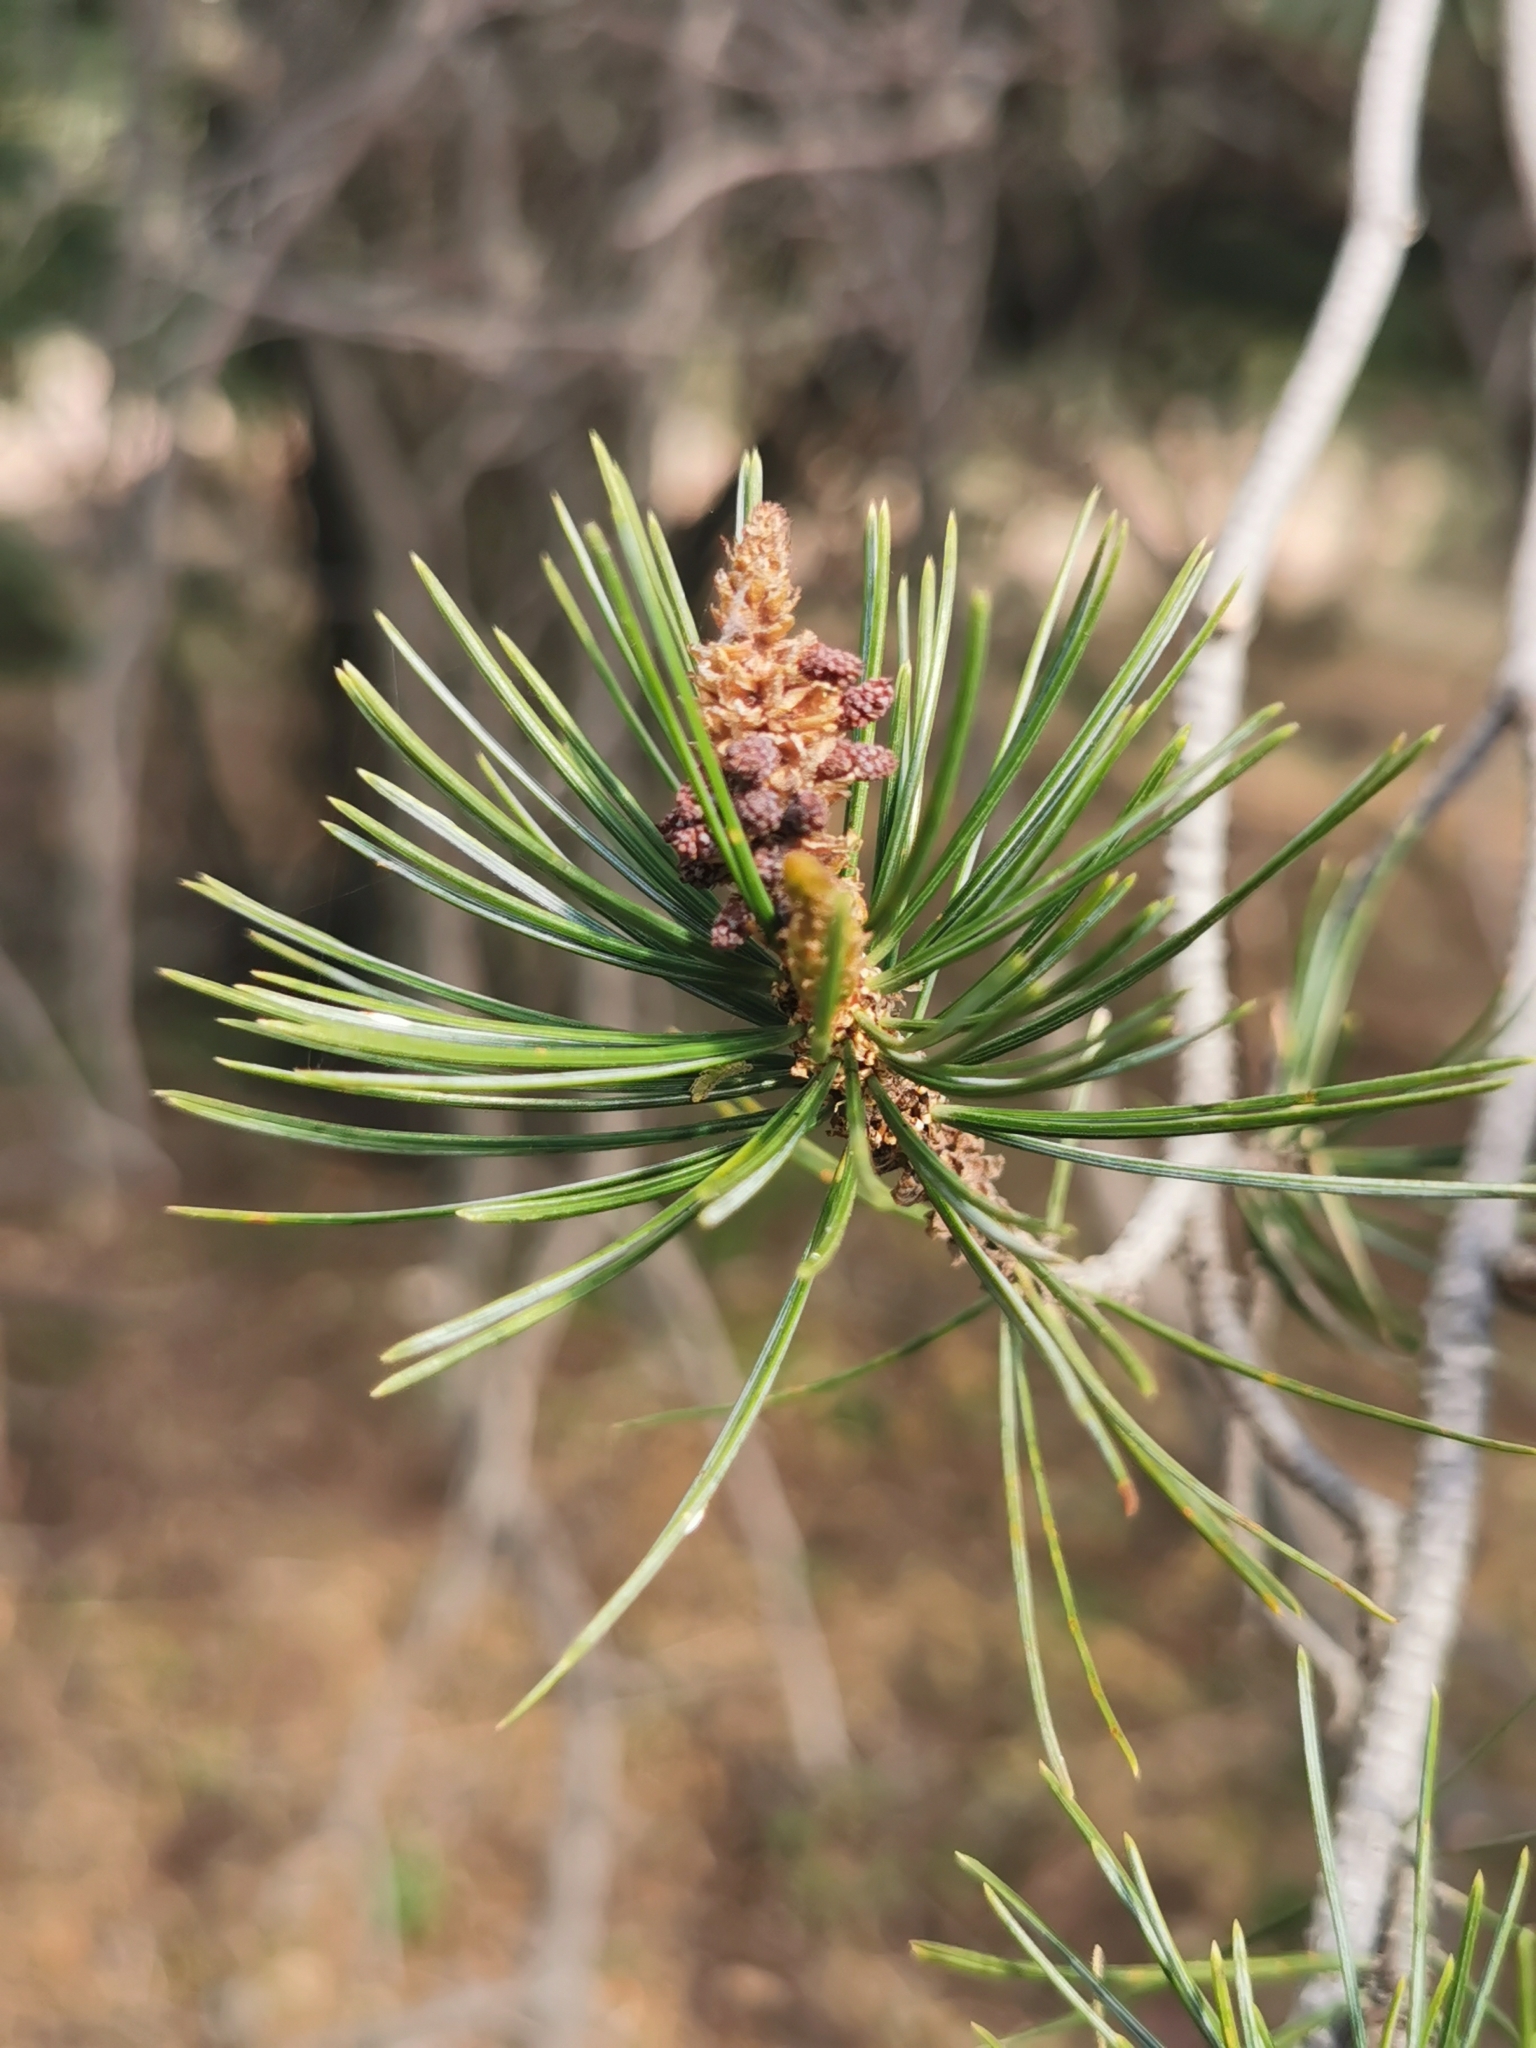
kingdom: Plantae
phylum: Tracheophyta
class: Pinopsida
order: Pinales
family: Pinaceae
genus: Pinus
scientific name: Pinus discolor
